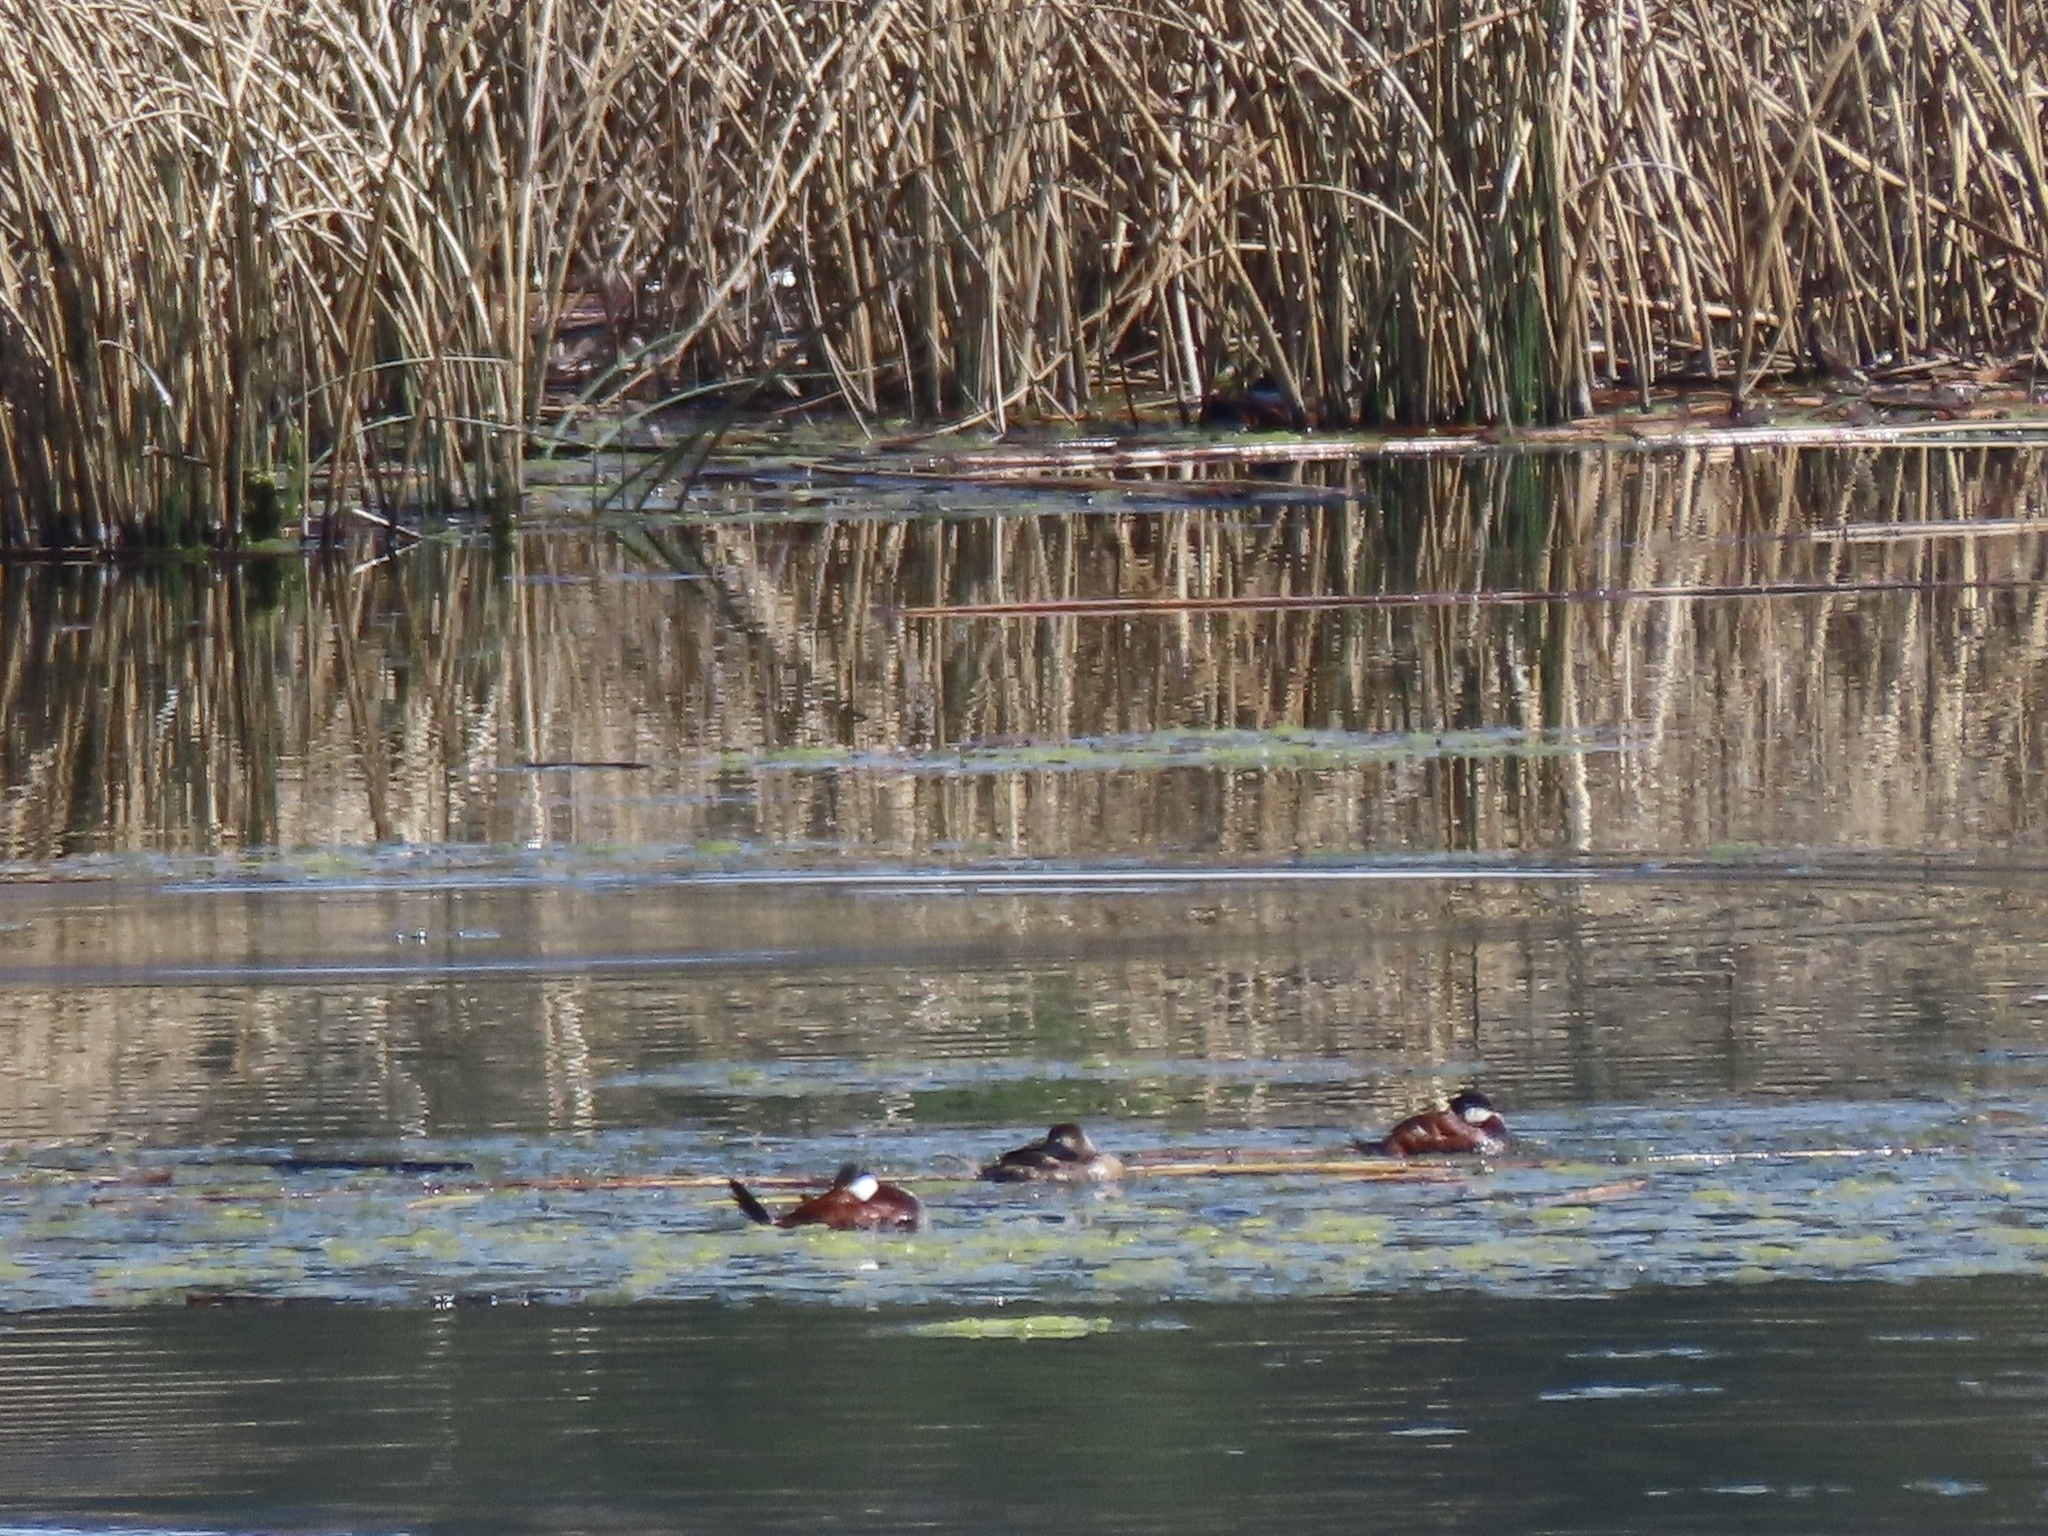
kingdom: Animalia
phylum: Chordata
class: Aves
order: Anseriformes
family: Anatidae
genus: Oxyura
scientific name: Oxyura jamaicensis
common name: Ruddy duck
